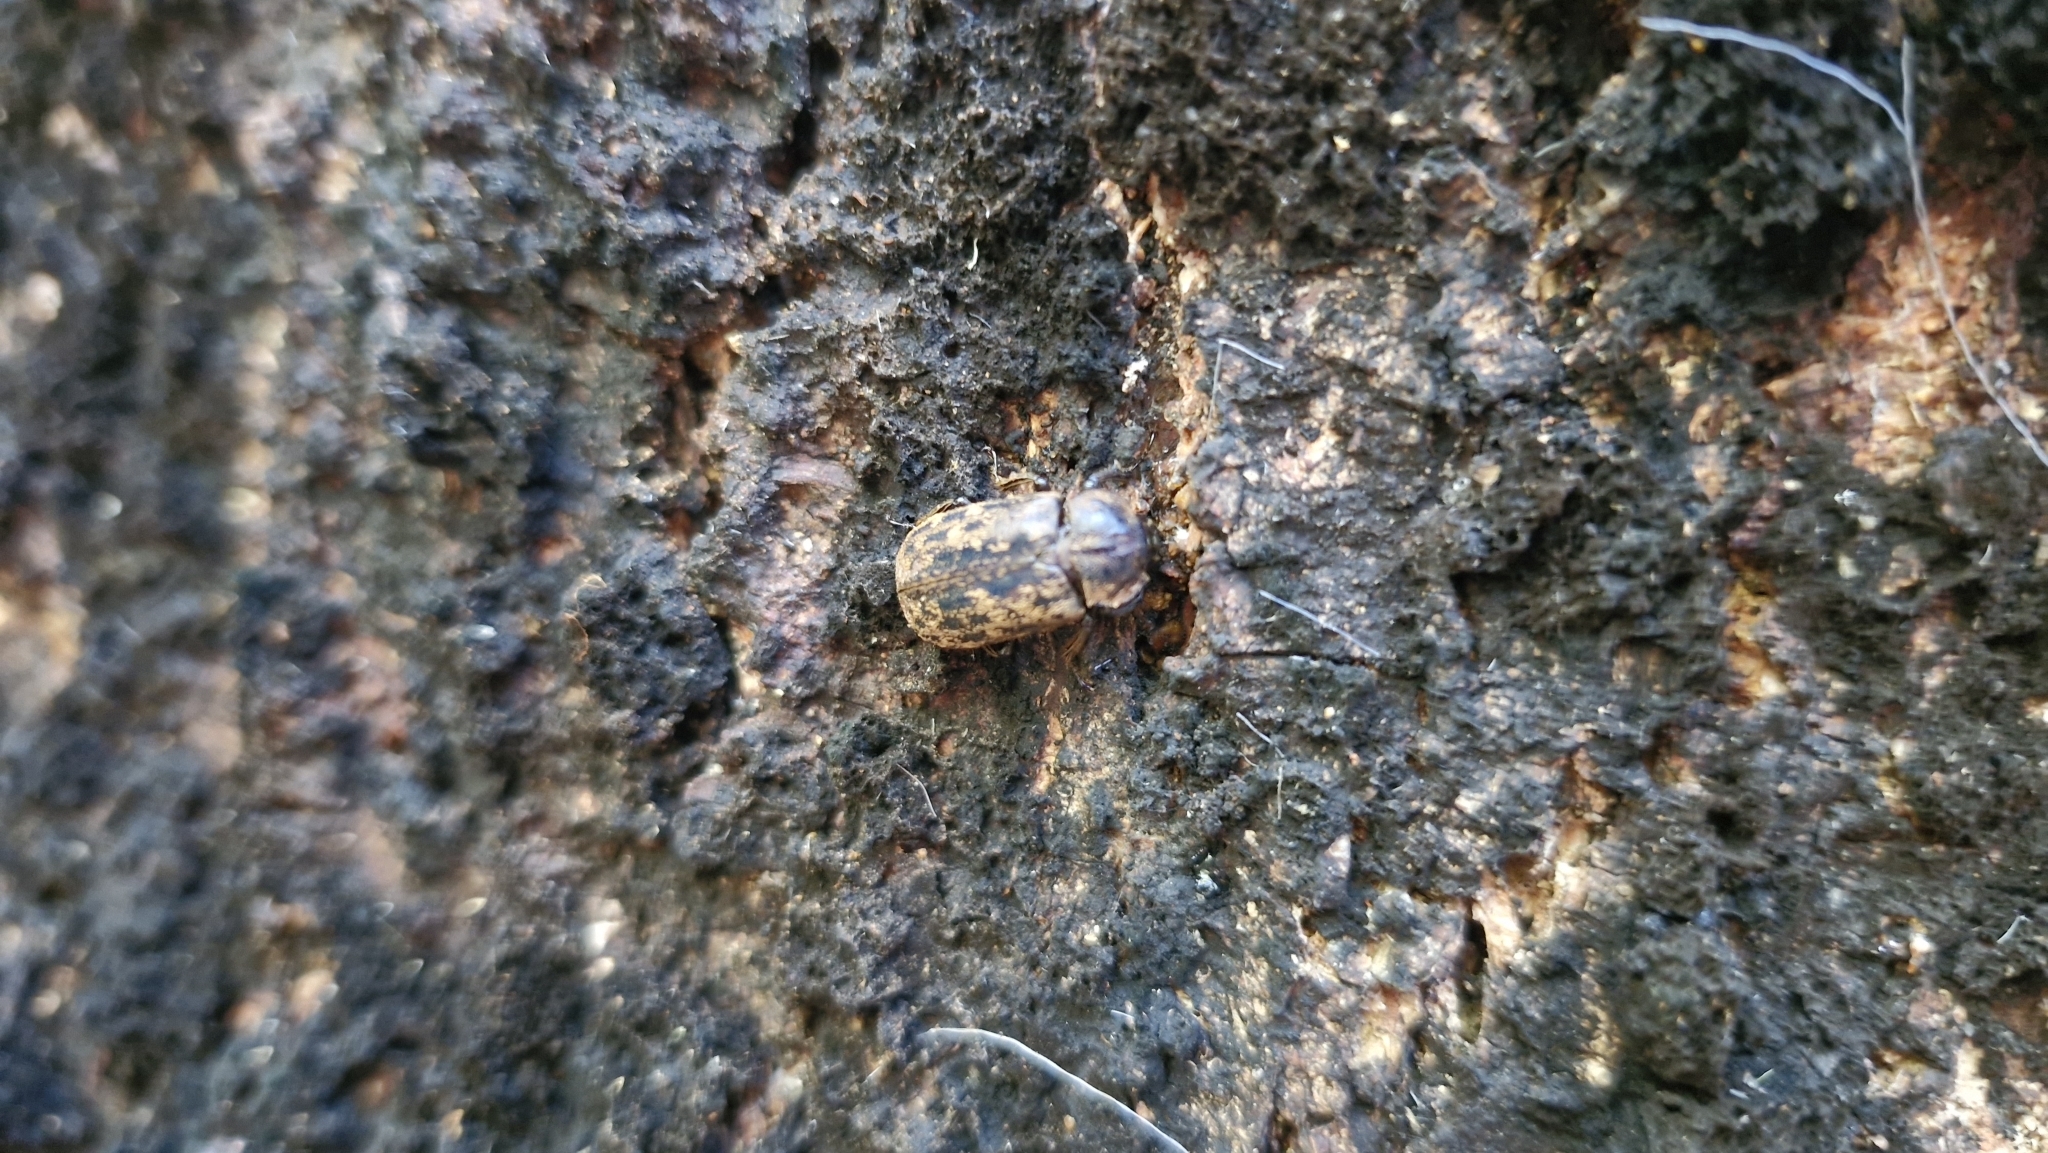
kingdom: Animalia
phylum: Arthropoda
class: Insecta
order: Coleoptera
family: Lucanidae
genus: Mitophyllus
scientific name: Mitophyllus irroratus
